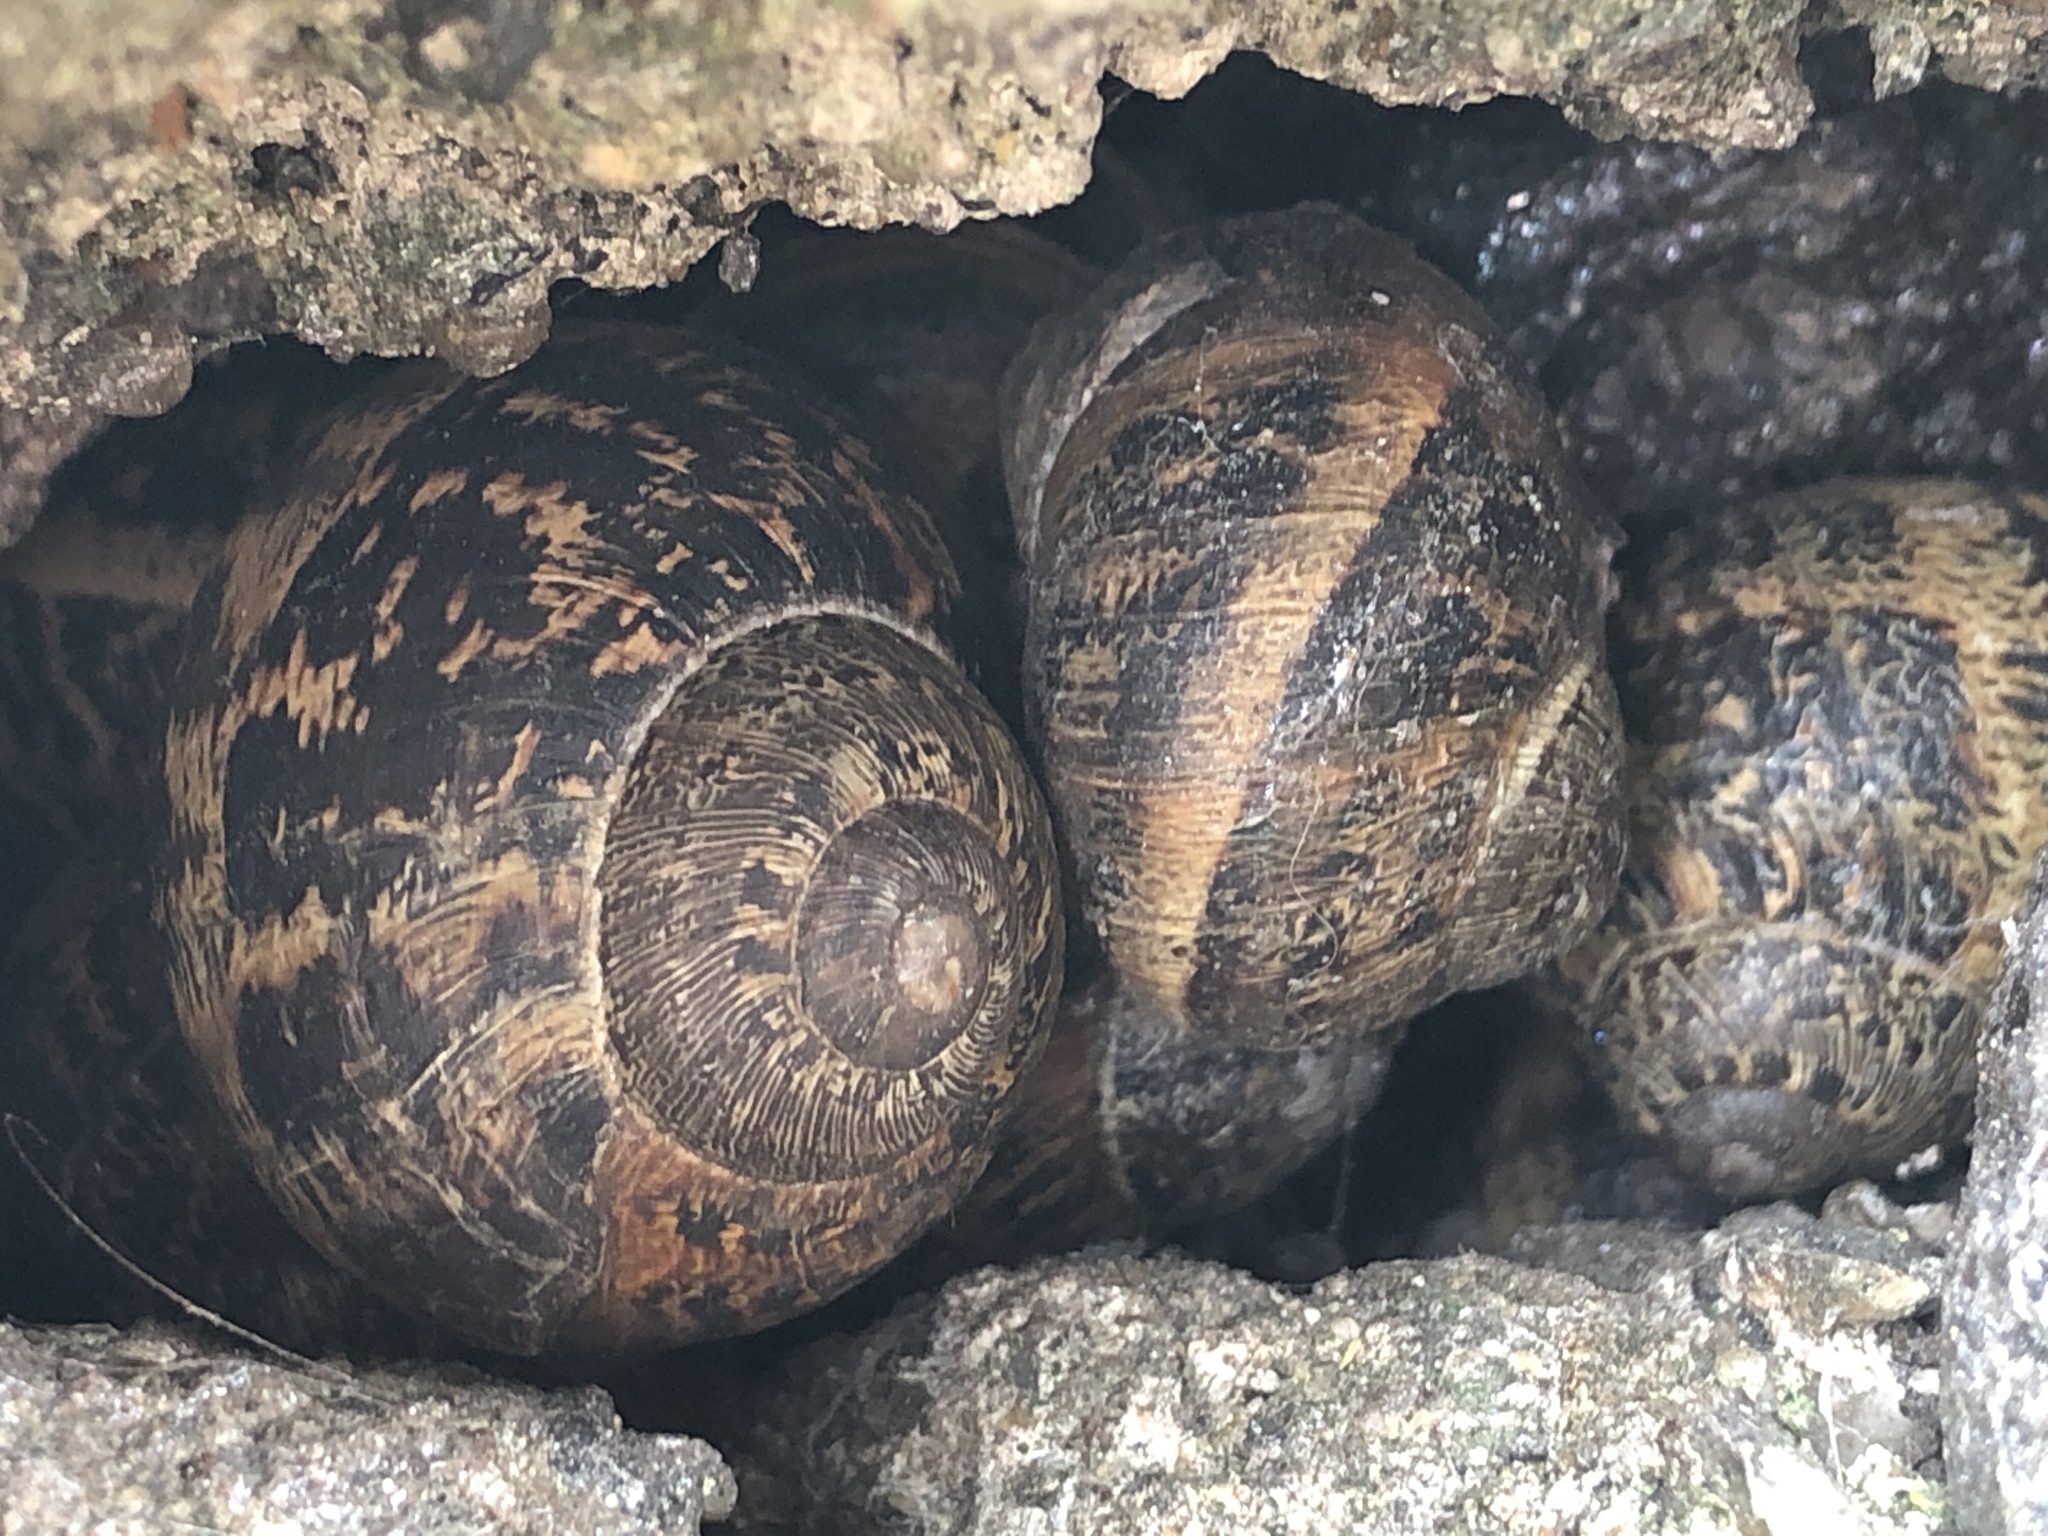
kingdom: Animalia
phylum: Mollusca
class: Gastropoda
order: Stylommatophora
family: Helicidae
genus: Cornu
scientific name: Cornu aspersum
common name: Brown garden snail
